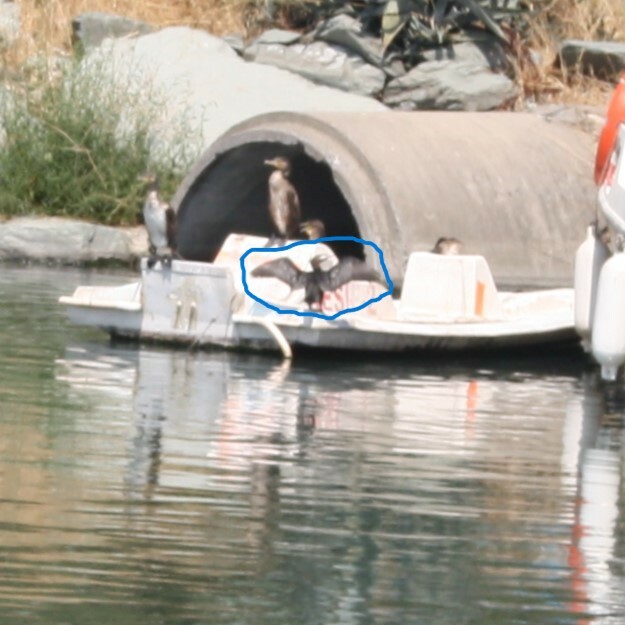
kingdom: Animalia
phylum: Chordata
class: Aves
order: Suliformes
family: Phalacrocoracidae
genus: Microcarbo
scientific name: Microcarbo pygmaeus
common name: Pygmy cormorant
